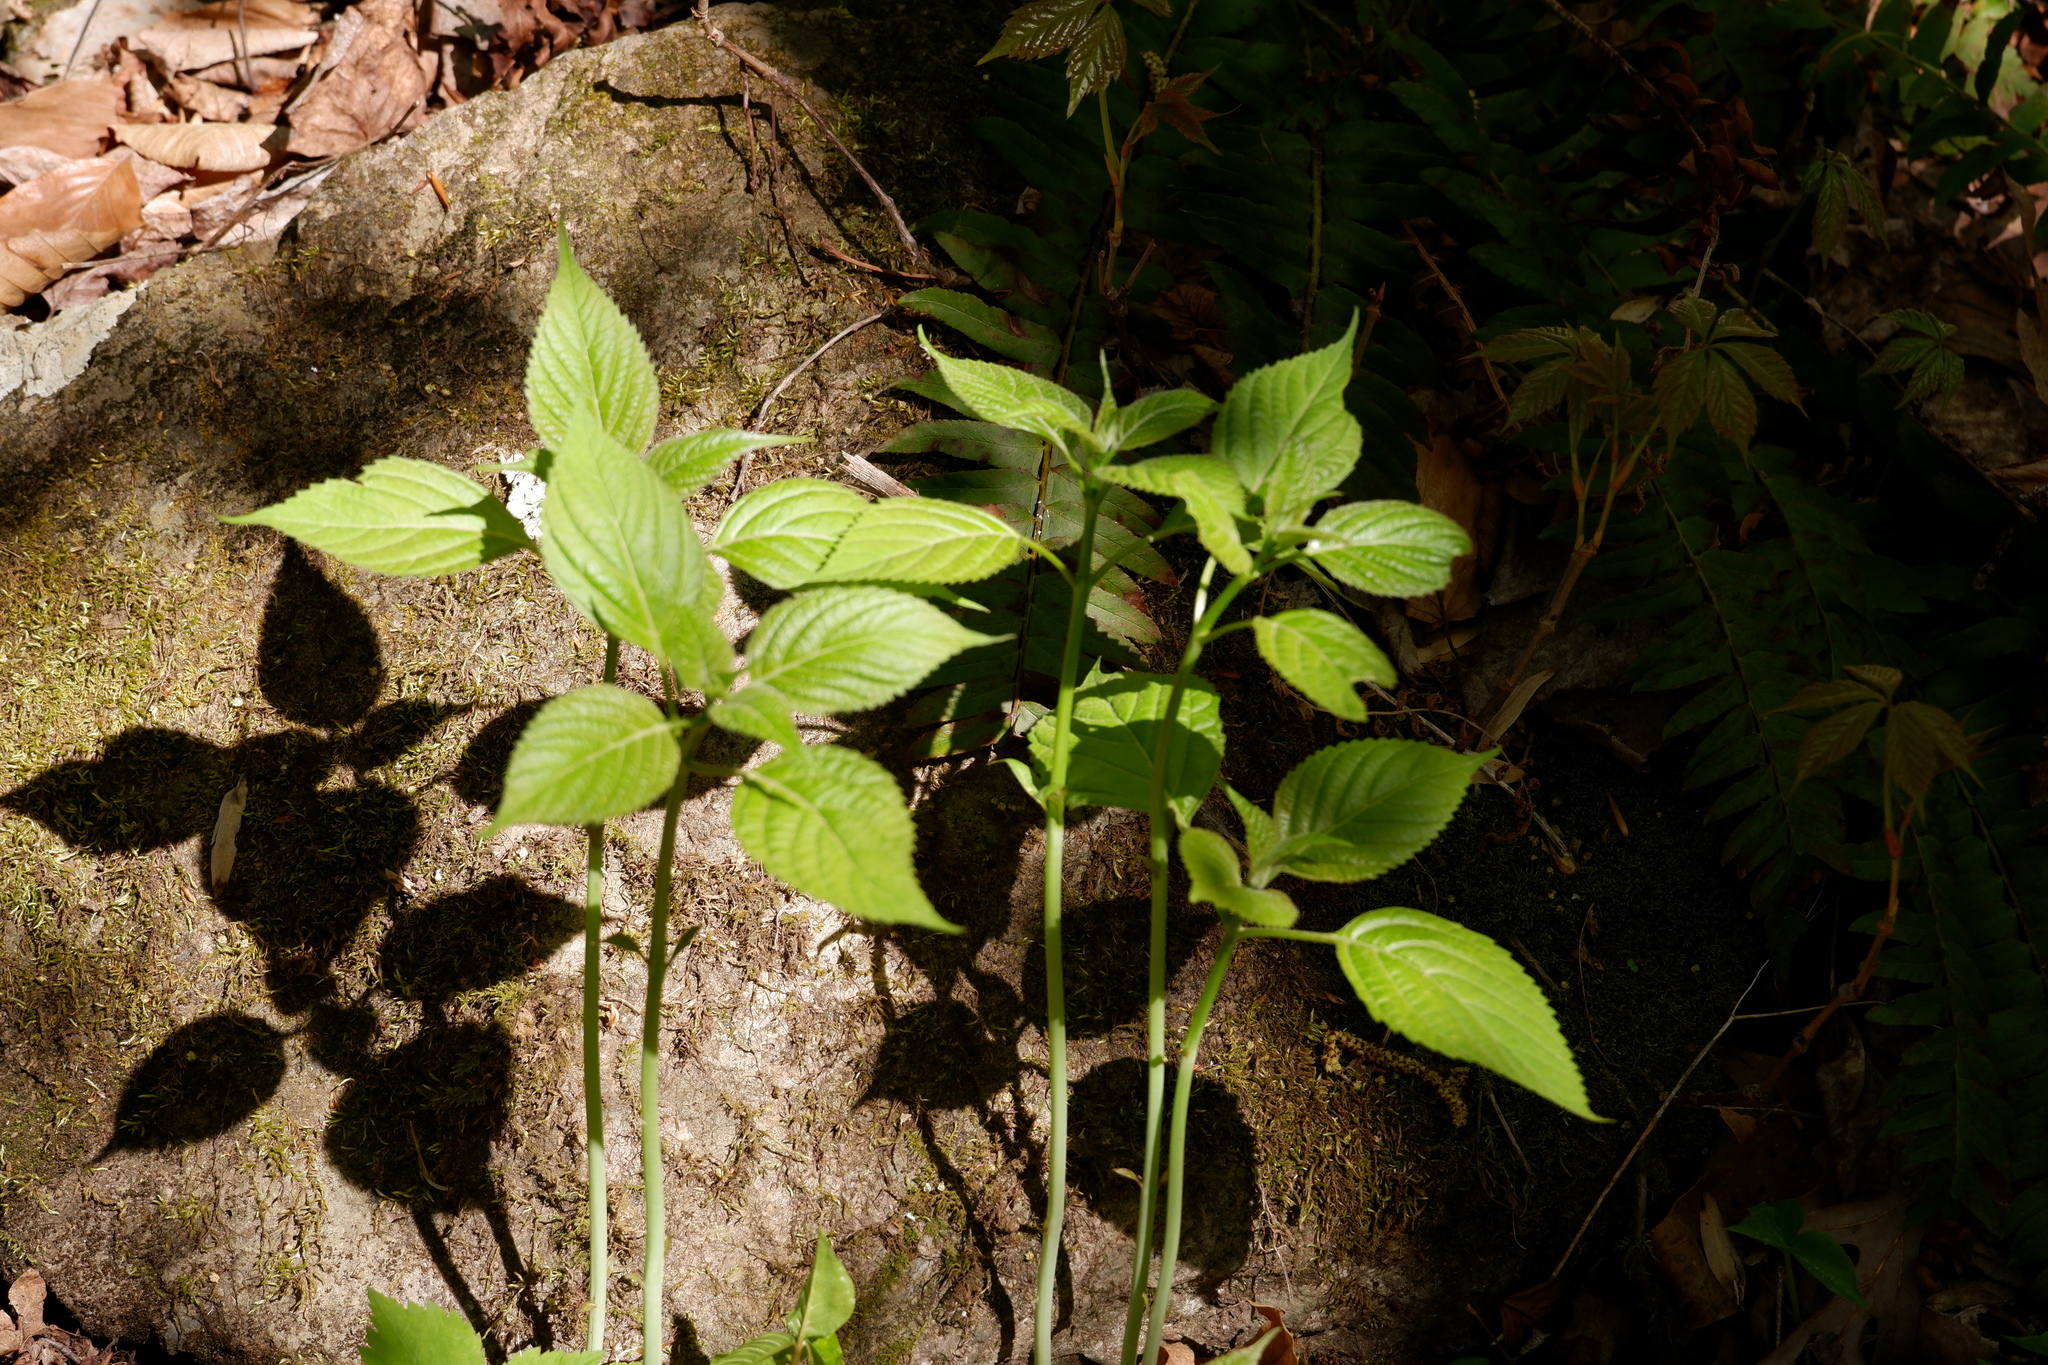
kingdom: Plantae
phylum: Tracheophyta
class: Magnoliopsida
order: Lamiales
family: Lamiaceae
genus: Collinsonia
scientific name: Collinsonia canadensis
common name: Northern horsebalm
